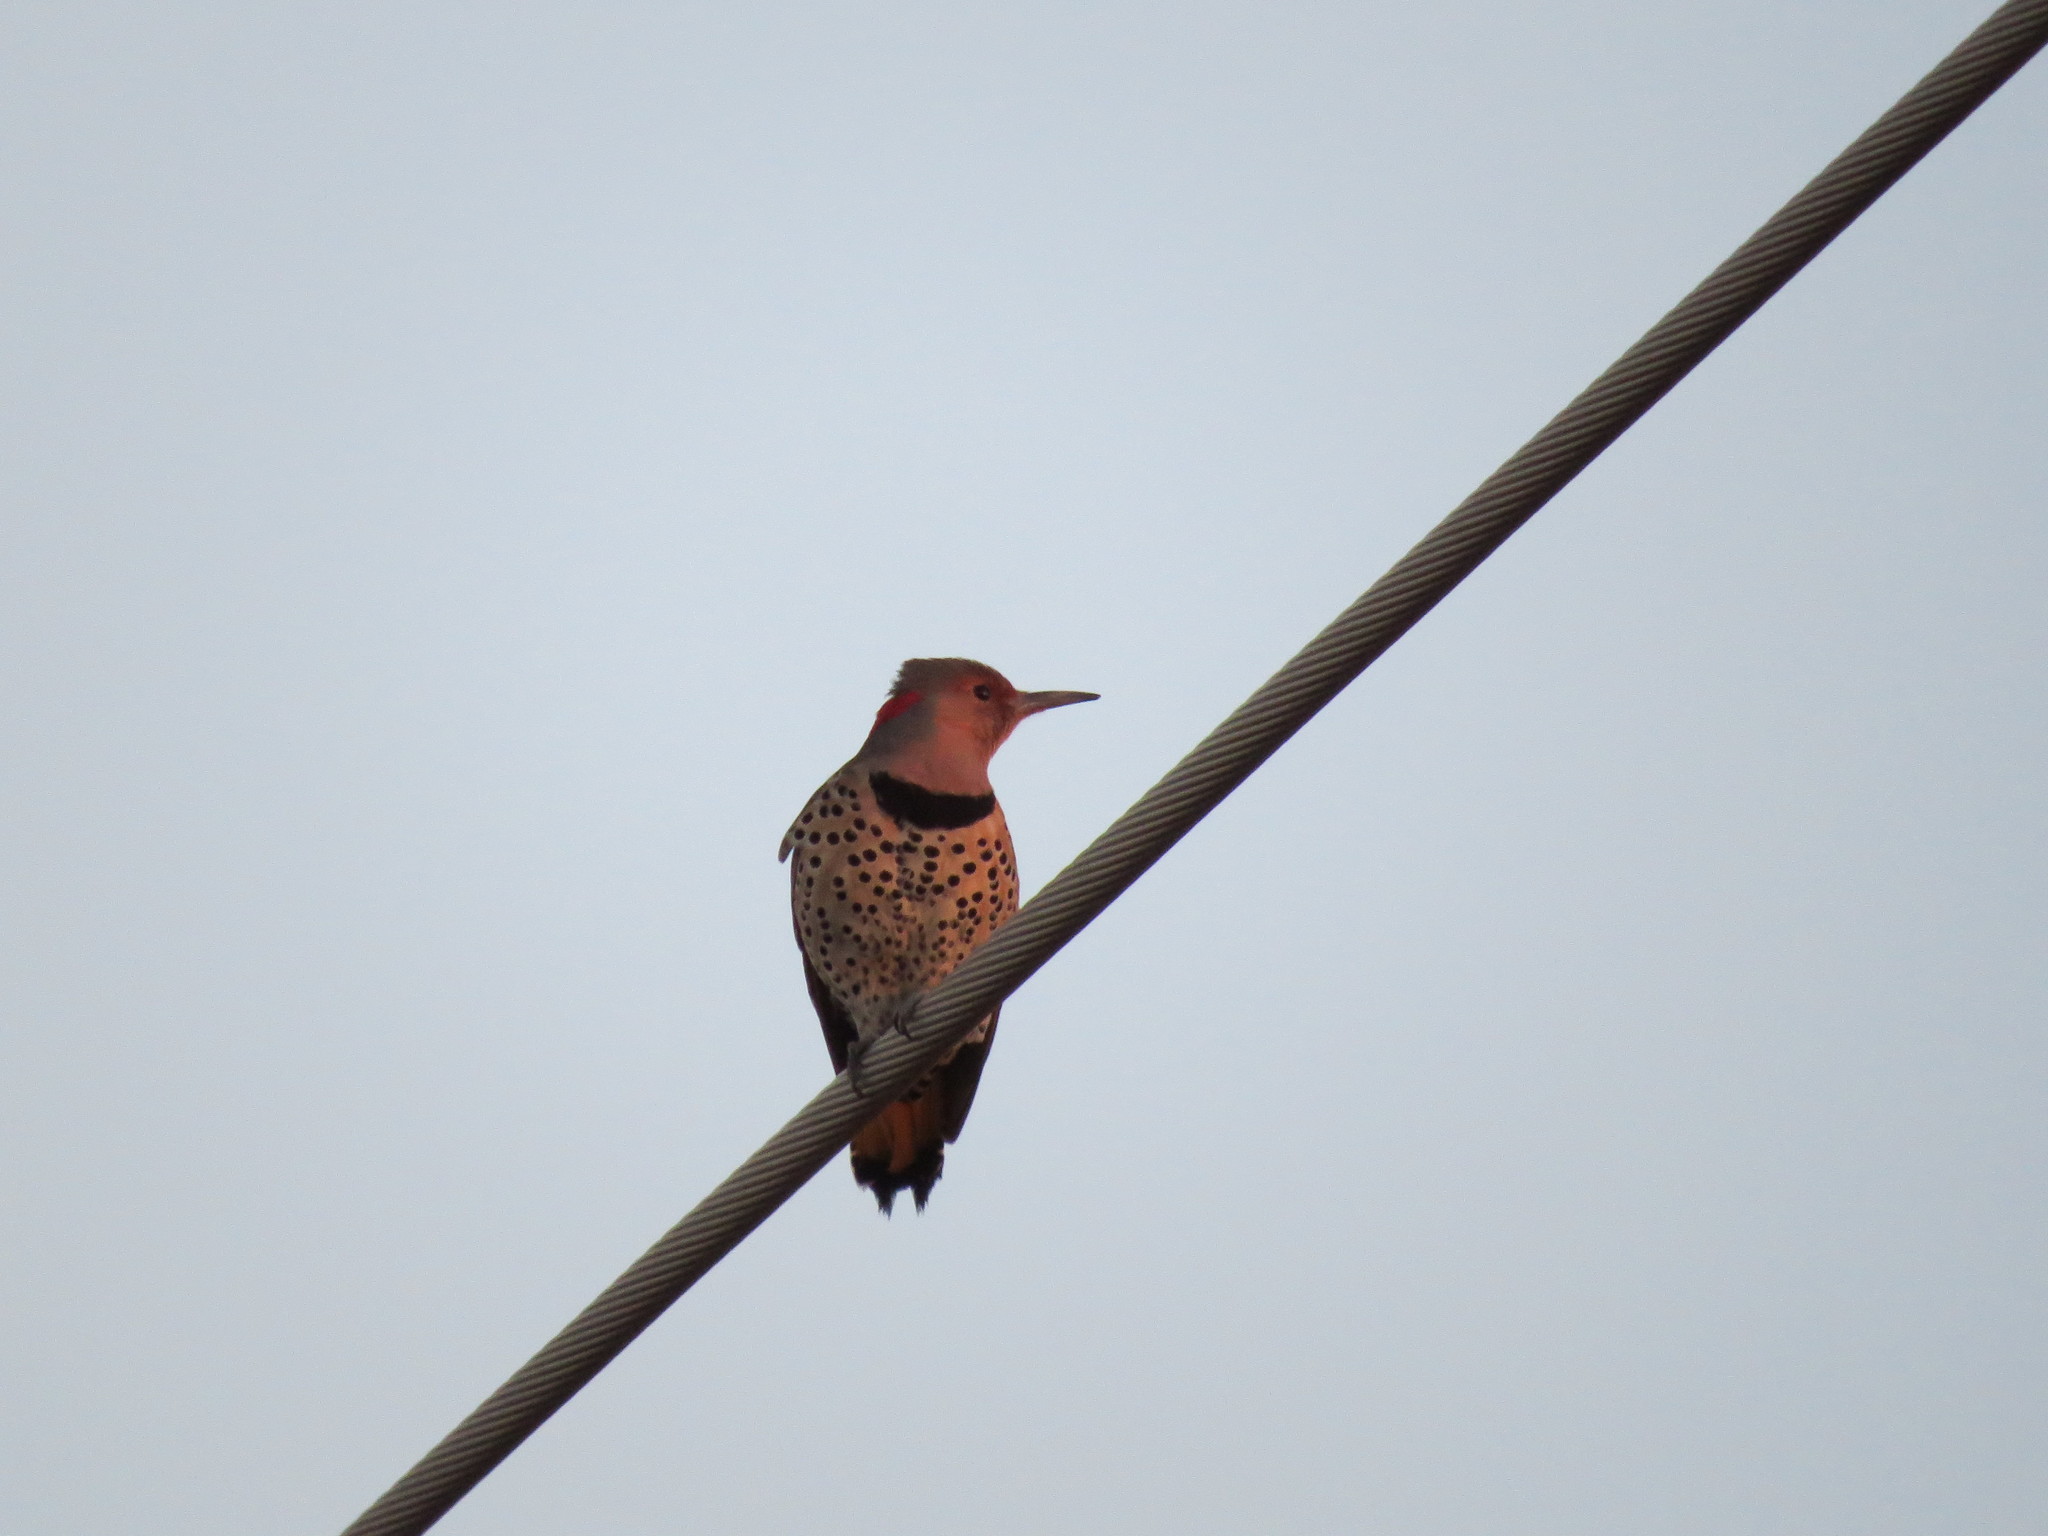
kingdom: Animalia
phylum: Chordata
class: Aves
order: Piciformes
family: Picidae
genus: Colaptes
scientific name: Colaptes auratus
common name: Northern flicker
